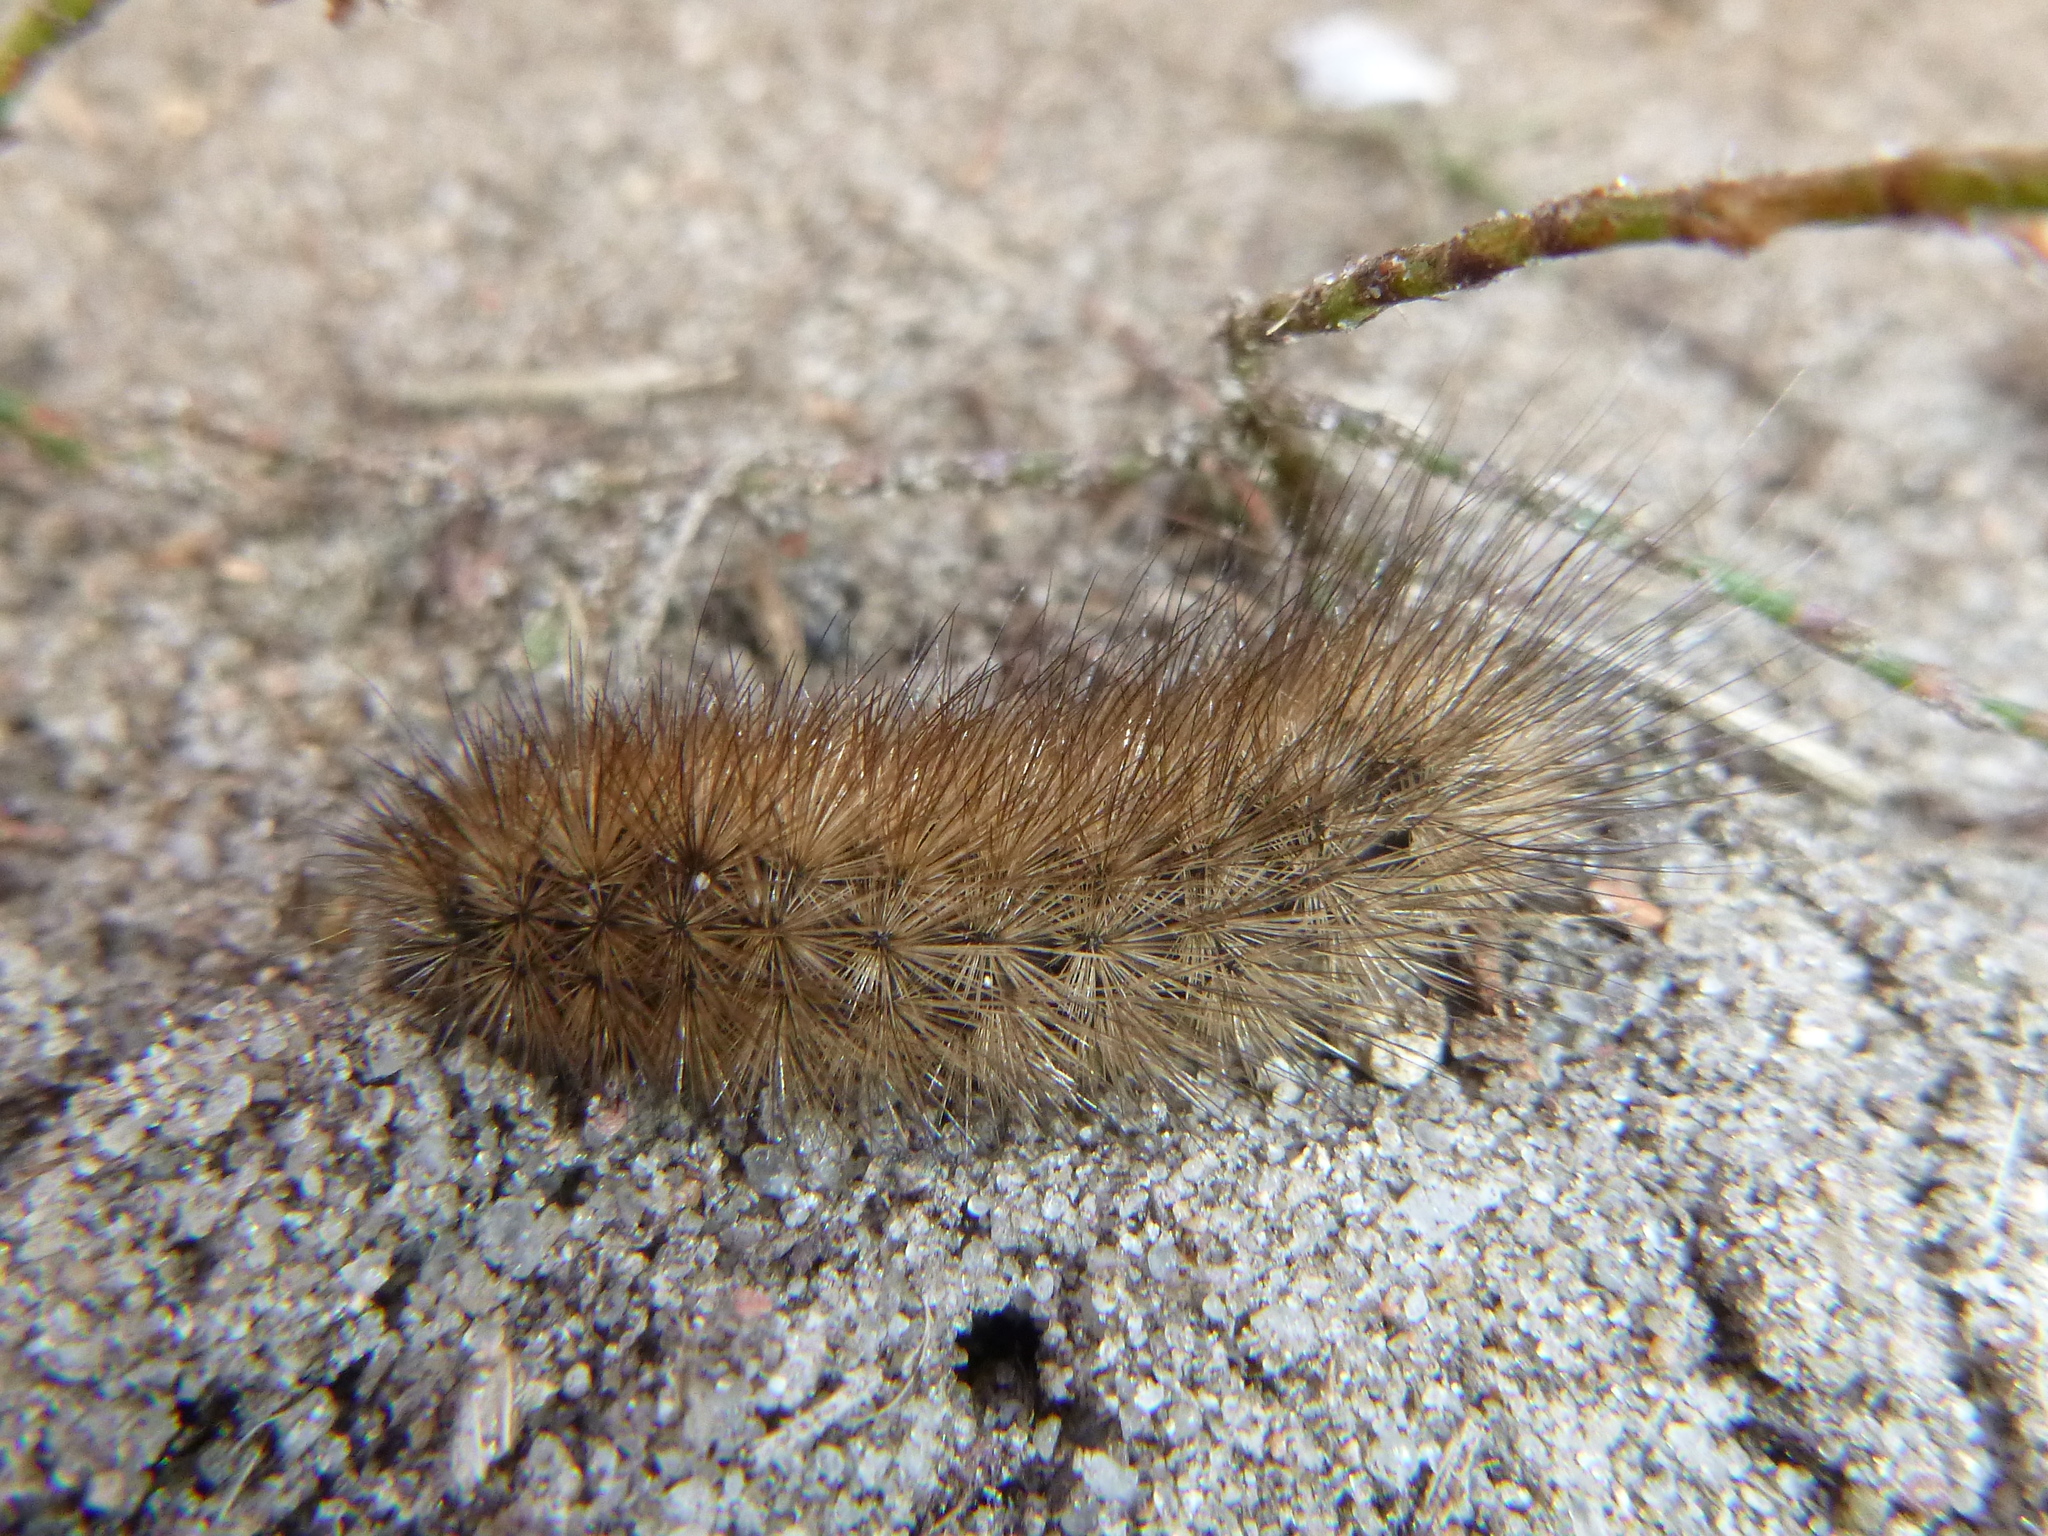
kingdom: Animalia
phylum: Arthropoda
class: Insecta
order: Lepidoptera
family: Erebidae
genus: Phragmatobia
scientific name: Phragmatobia fuliginosa
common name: Ruby tiger
